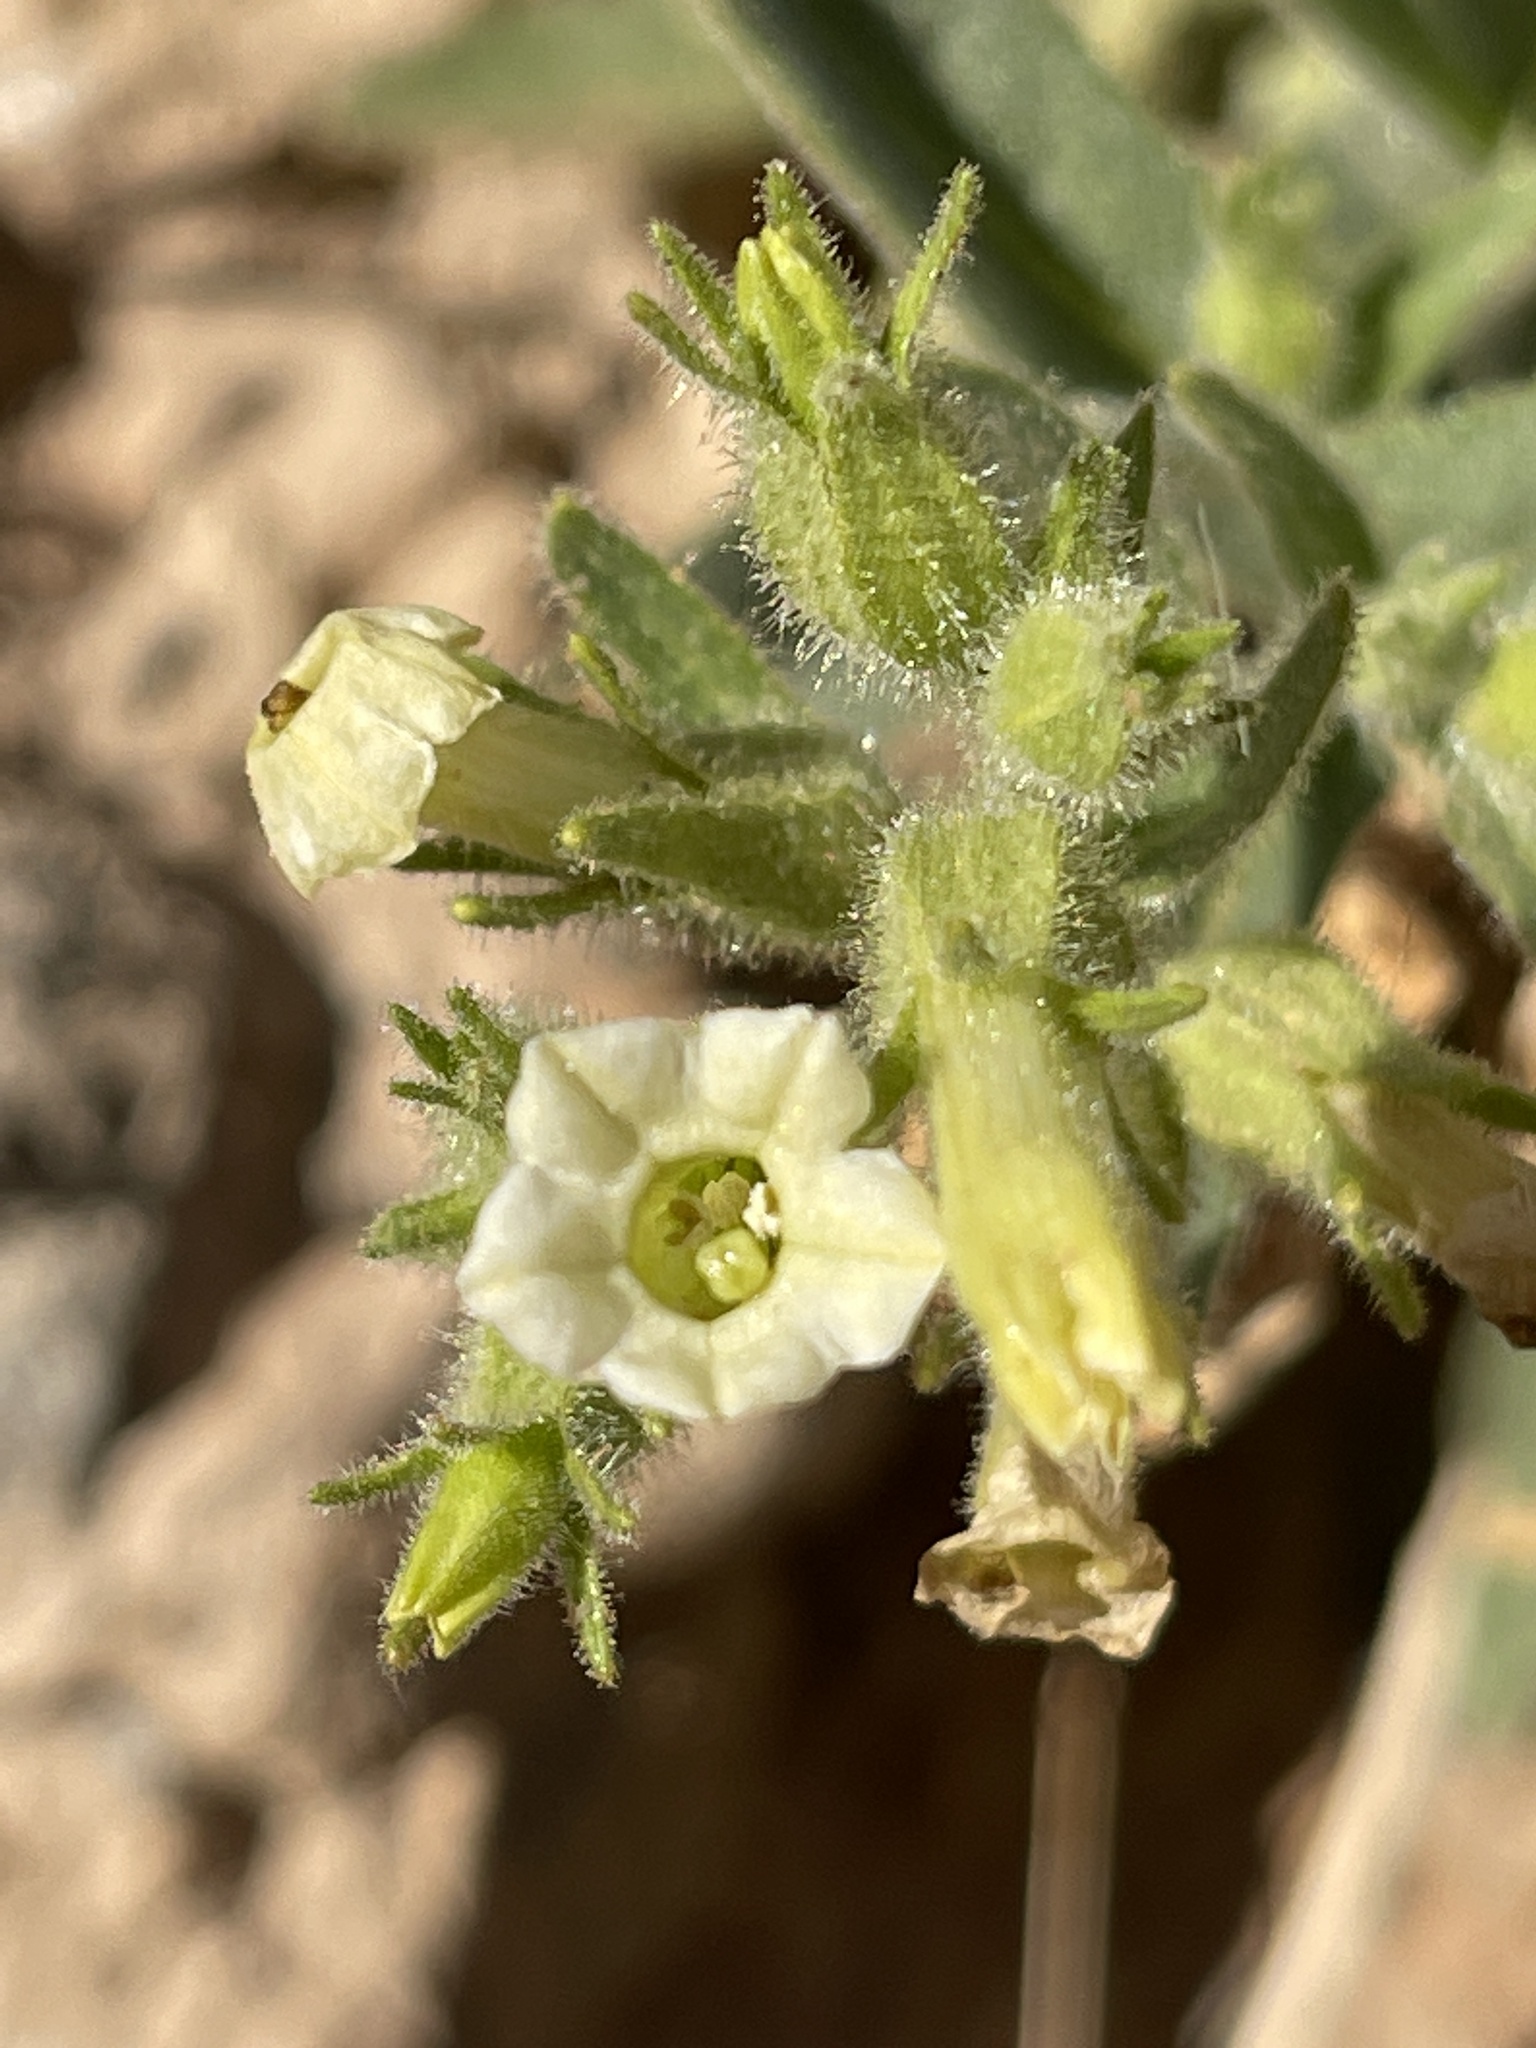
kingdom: Plantae
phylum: Tracheophyta
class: Magnoliopsida
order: Solanales
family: Solanaceae
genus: Nicotiana
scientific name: Nicotiana obtusifolia
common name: Desert tobacco
